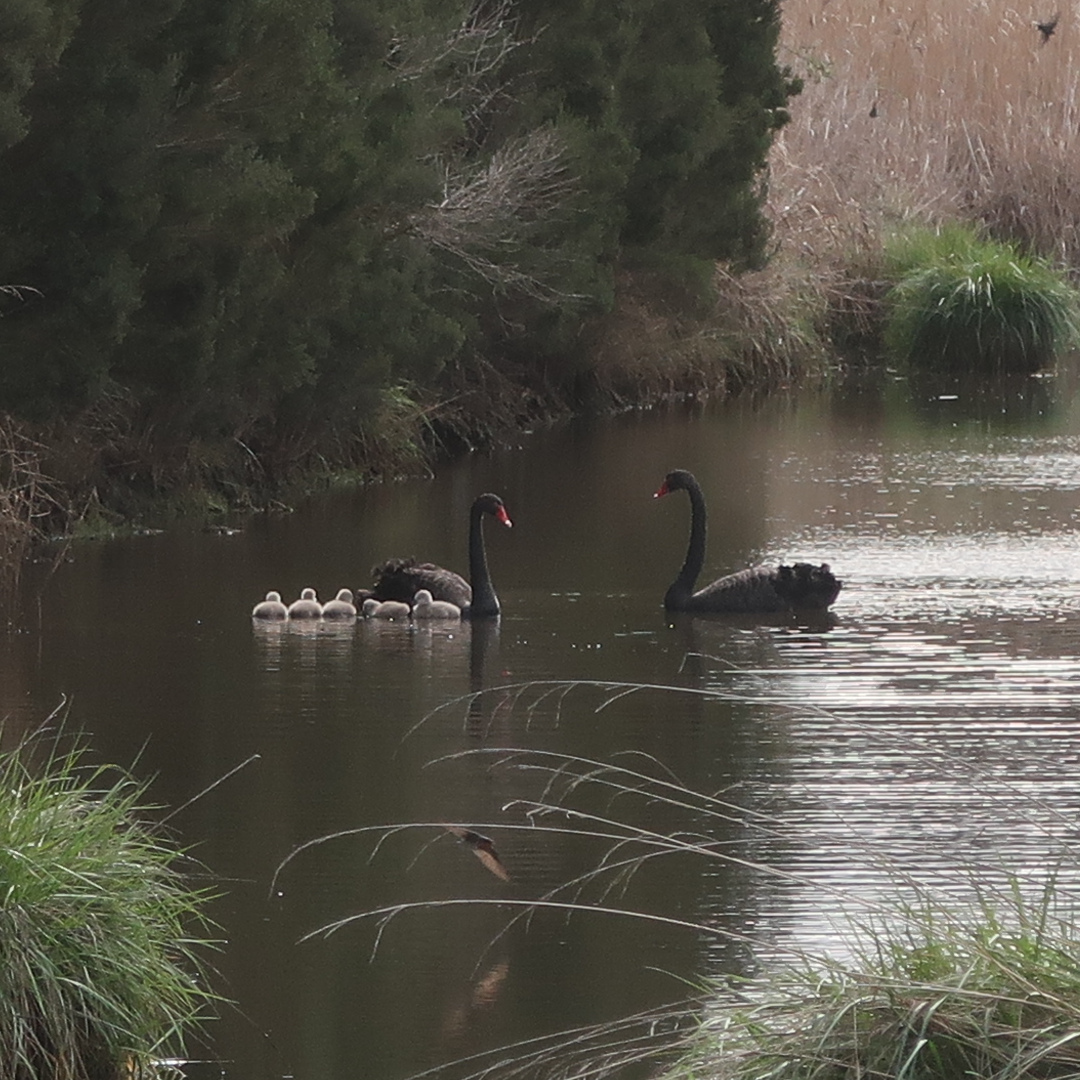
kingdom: Animalia
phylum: Chordata
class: Aves
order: Anseriformes
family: Anatidae
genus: Cygnus
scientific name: Cygnus atratus
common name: Black swan
